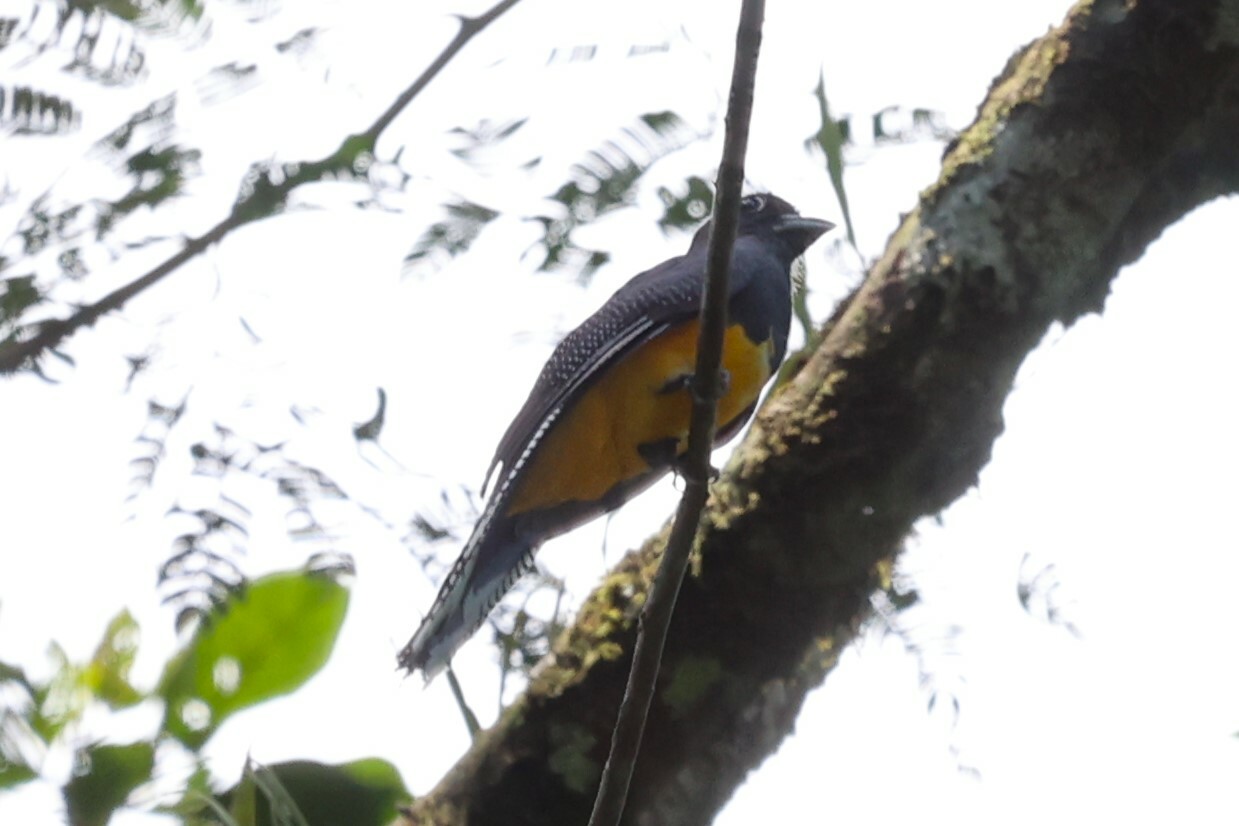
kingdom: Animalia
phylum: Chordata
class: Aves
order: Trogoniformes
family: Trogonidae
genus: Trogon
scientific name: Trogon viridis
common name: Green-backed trogon
